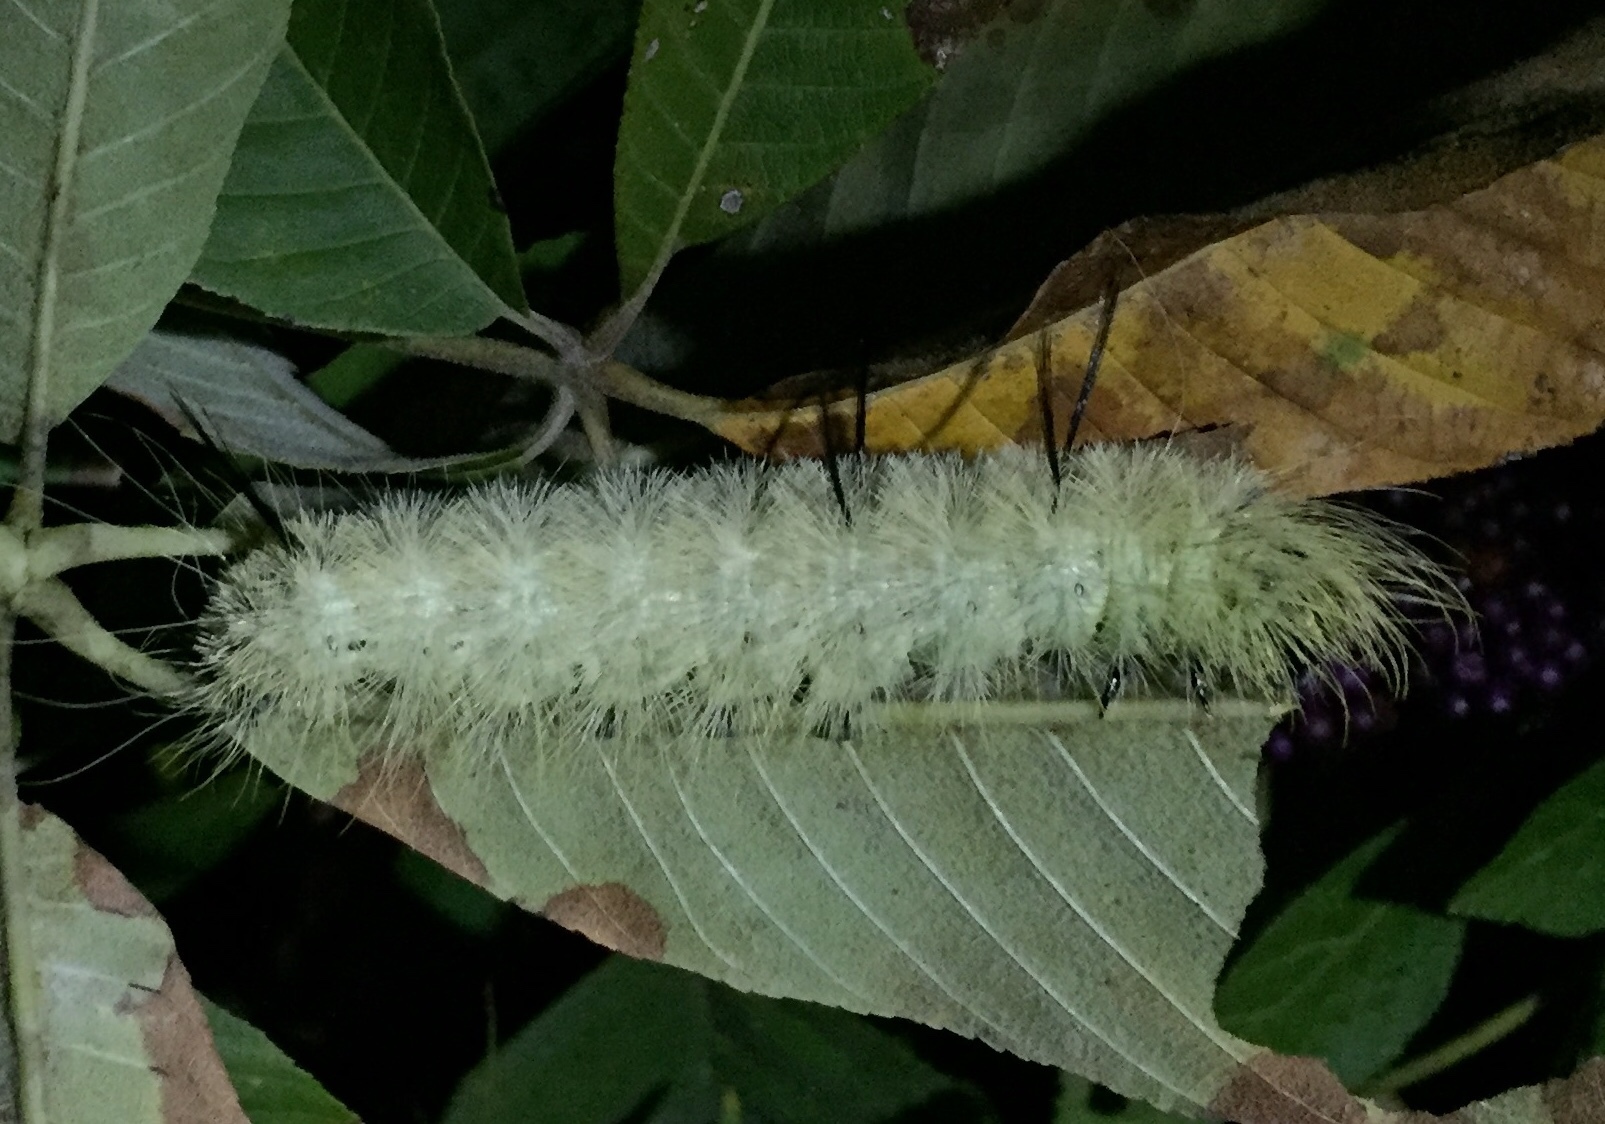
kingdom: Animalia
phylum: Arthropoda
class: Insecta
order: Lepidoptera
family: Noctuidae
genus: Acronicta
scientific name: Acronicta americana
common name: American dagger
